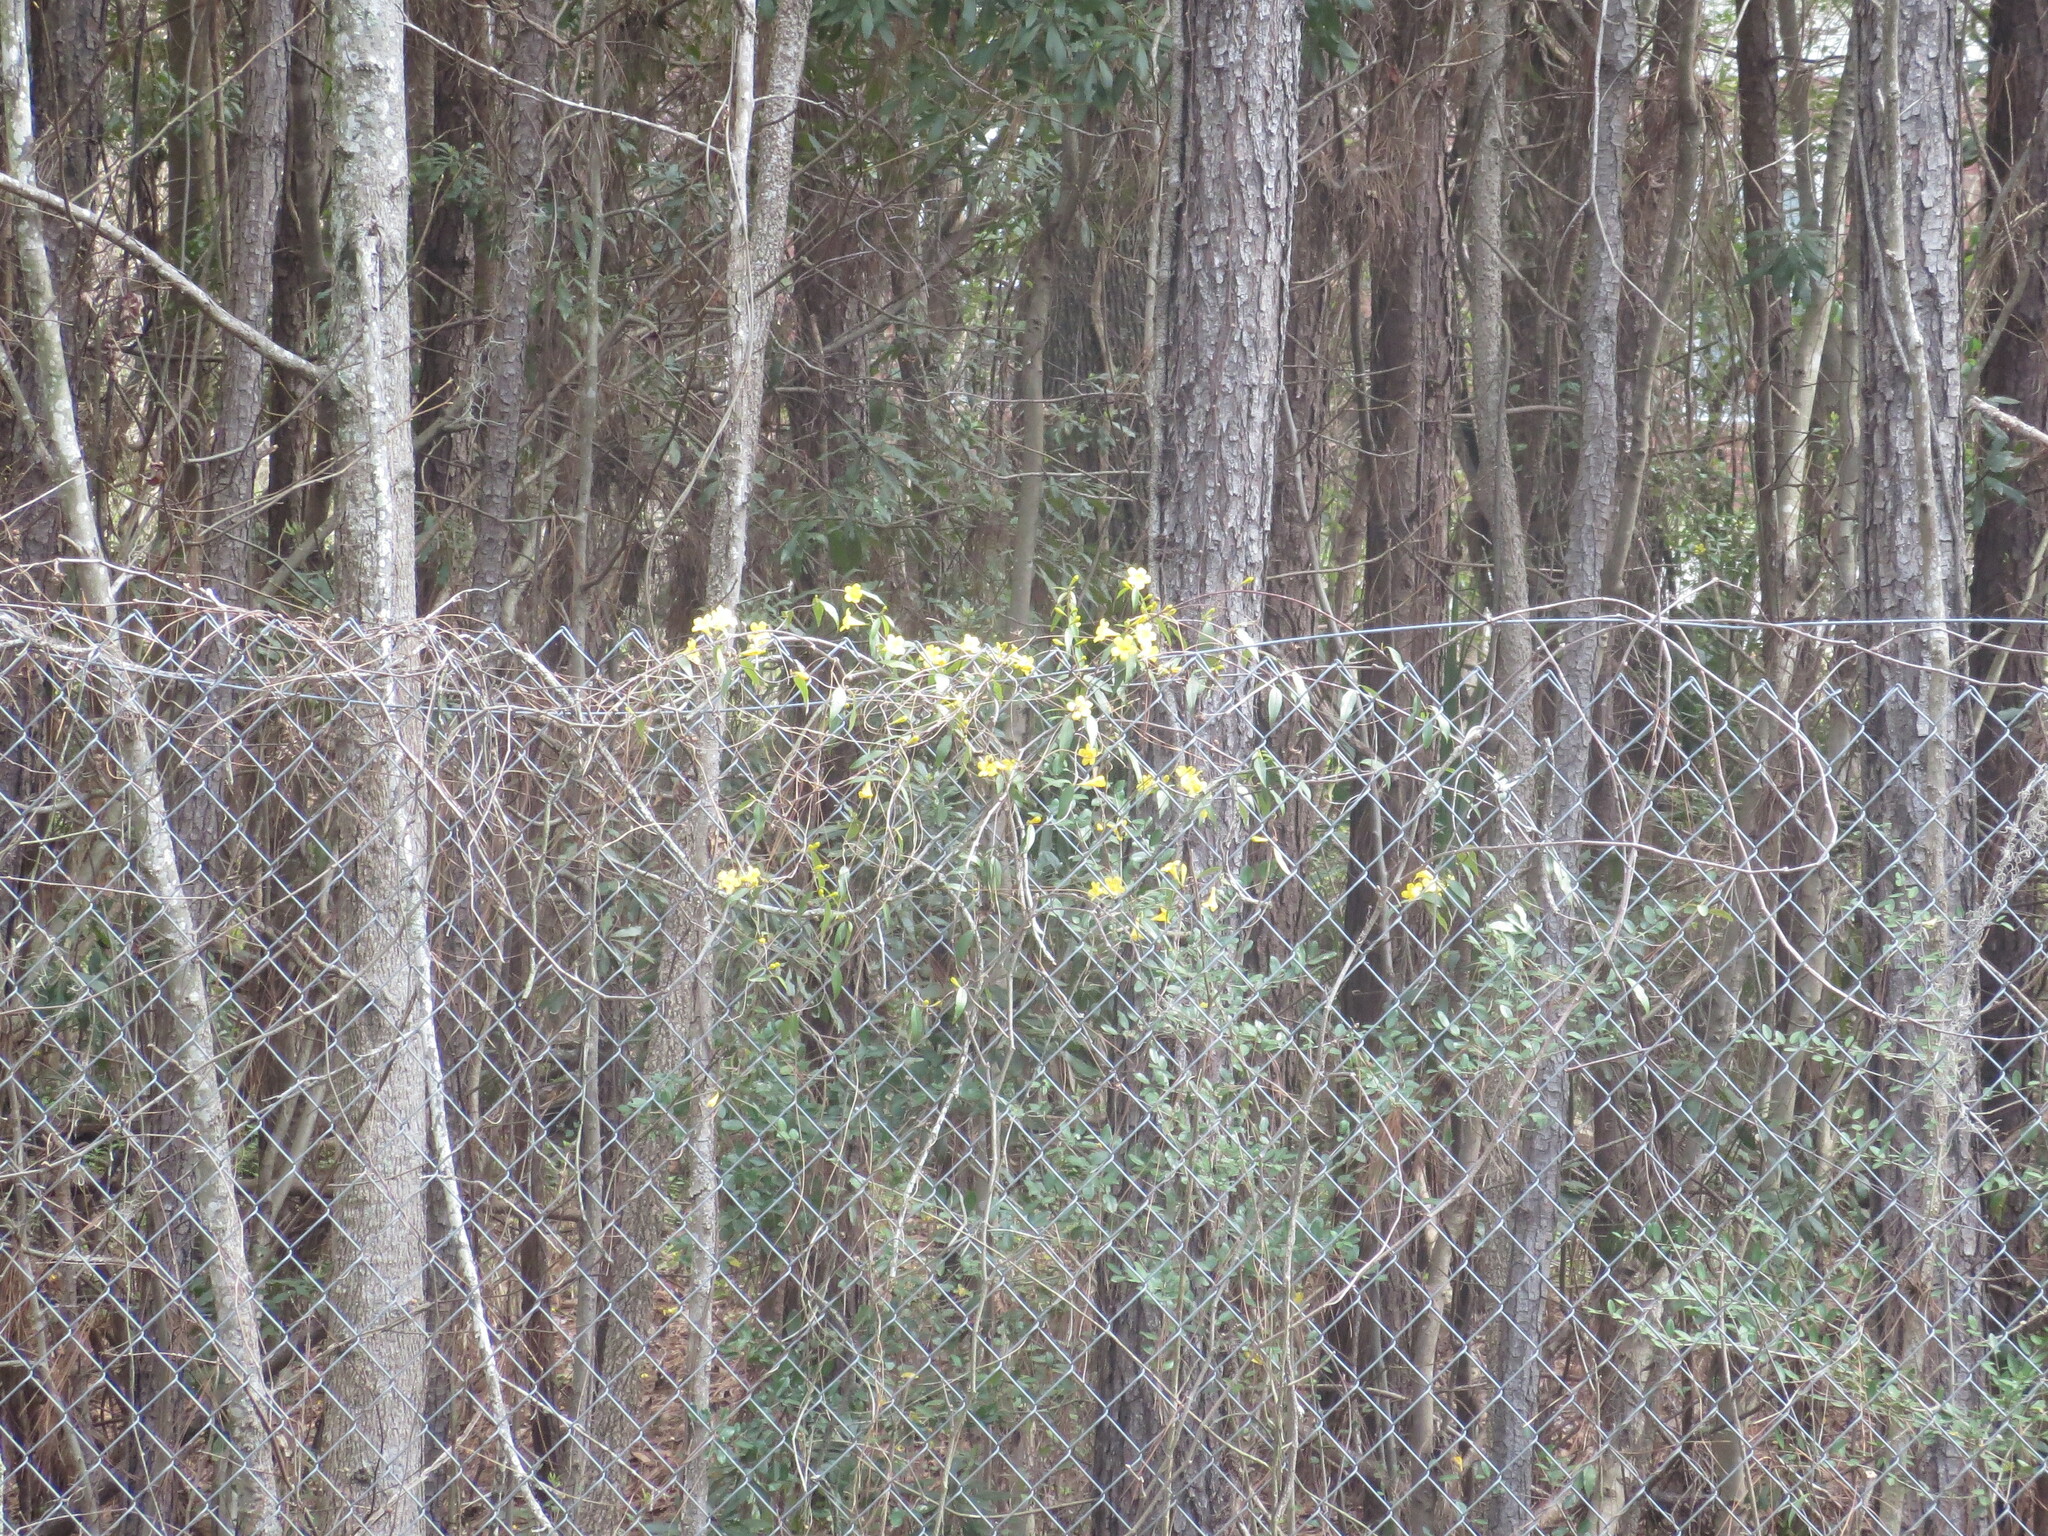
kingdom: Plantae
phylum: Tracheophyta
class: Magnoliopsida
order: Gentianales
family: Gelsemiaceae
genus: Gelsemium
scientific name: Gelsemium sempervirens
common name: Carolina-jasmine
